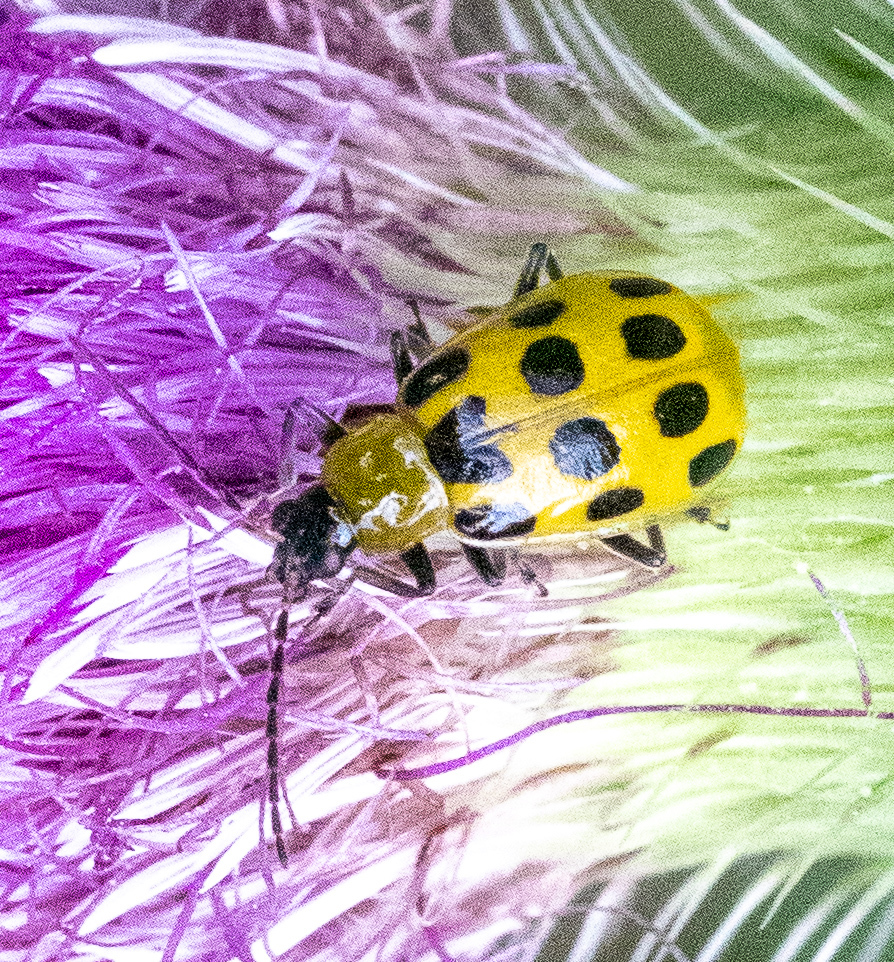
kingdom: Animalia
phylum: Arthropoda
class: Insecta
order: Coleoptera
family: Chrysomelidae
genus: Diabrotica
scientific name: Diabrotica undecimpunctata
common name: Spotted cucumber beetle
